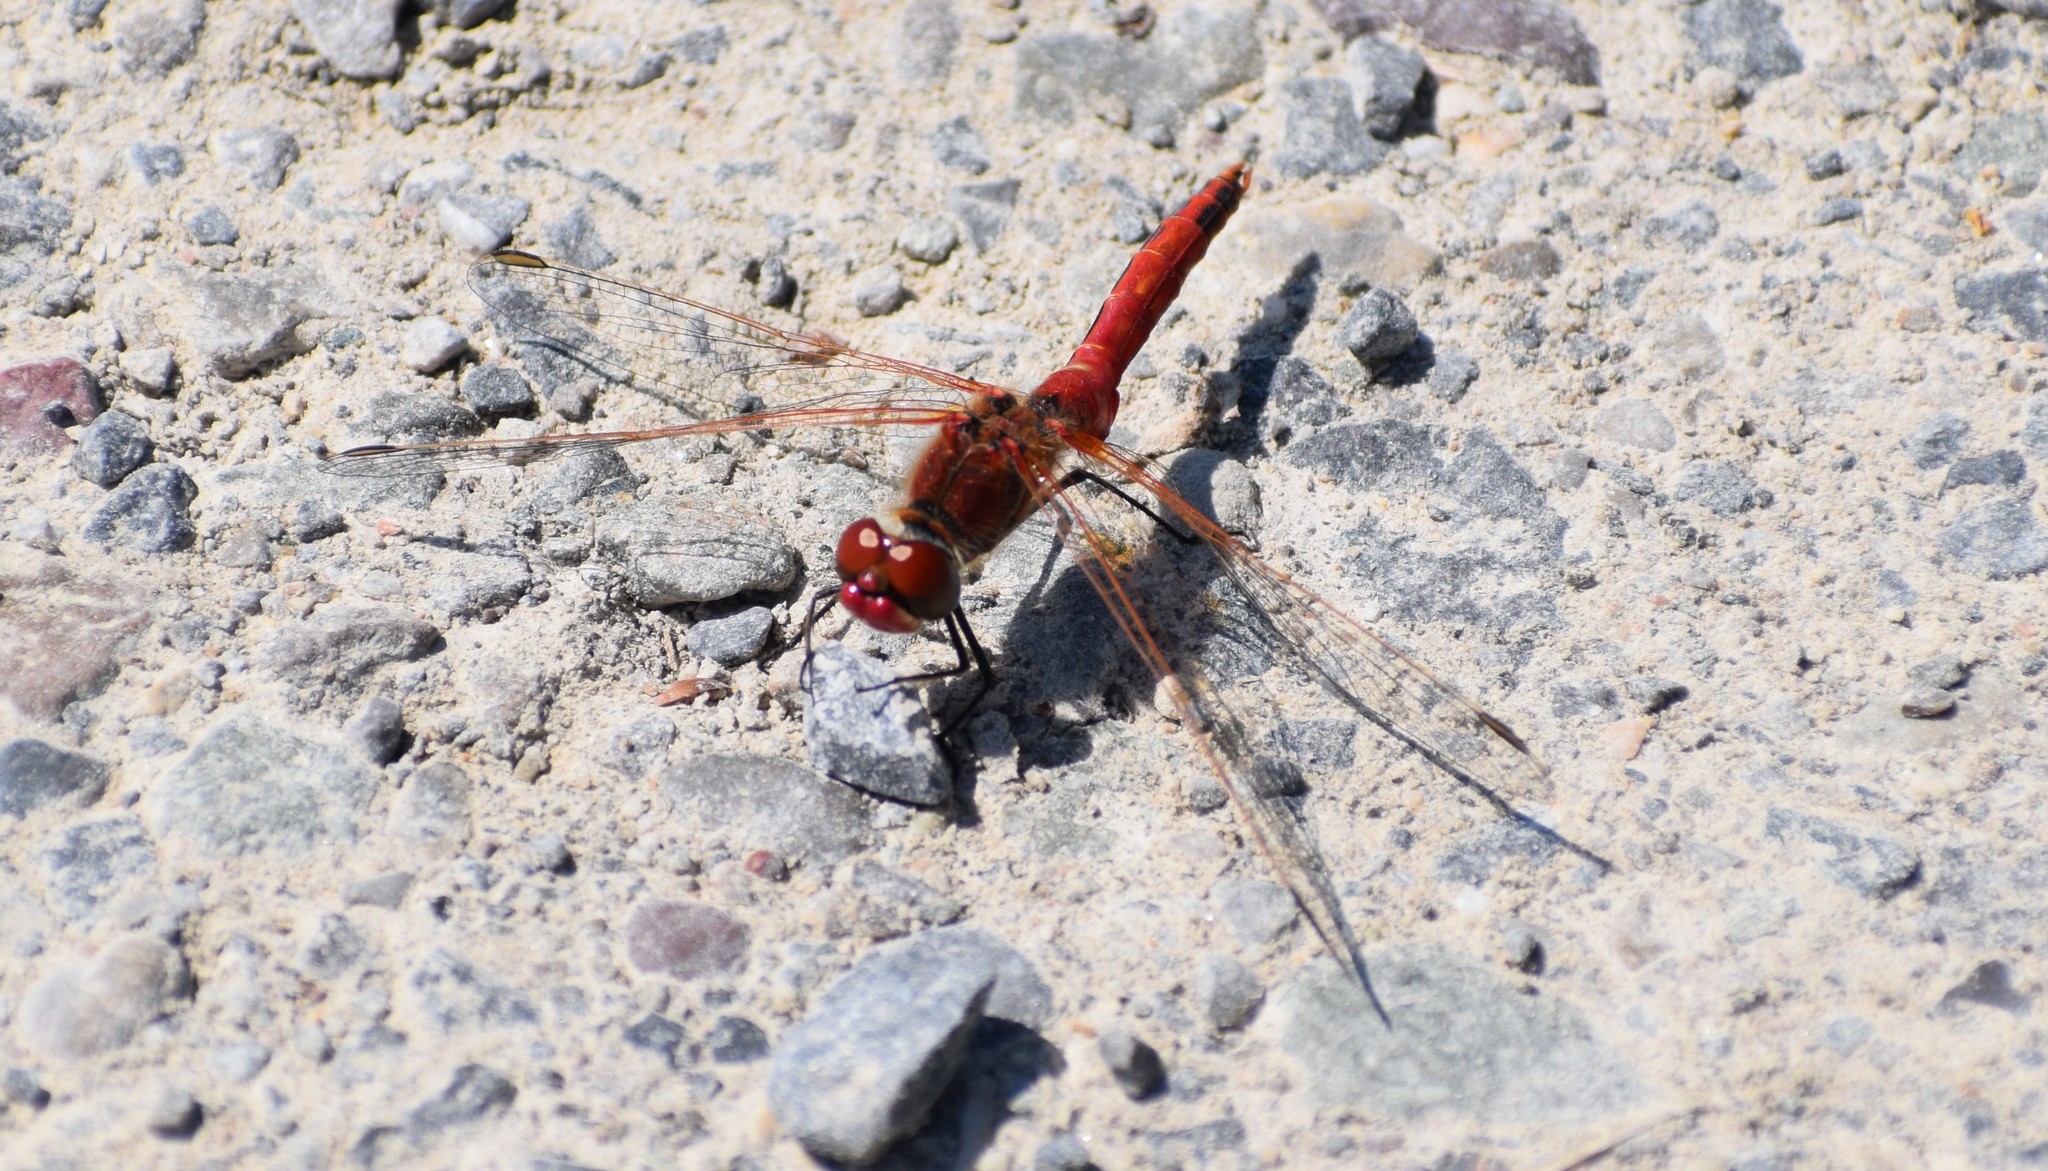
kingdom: Animalia
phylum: Arthropoda
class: Insecta
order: Odonata
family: Libellulidae
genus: Sympetrum
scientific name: Sympetrum fonscolombii
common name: Red-veined darter
